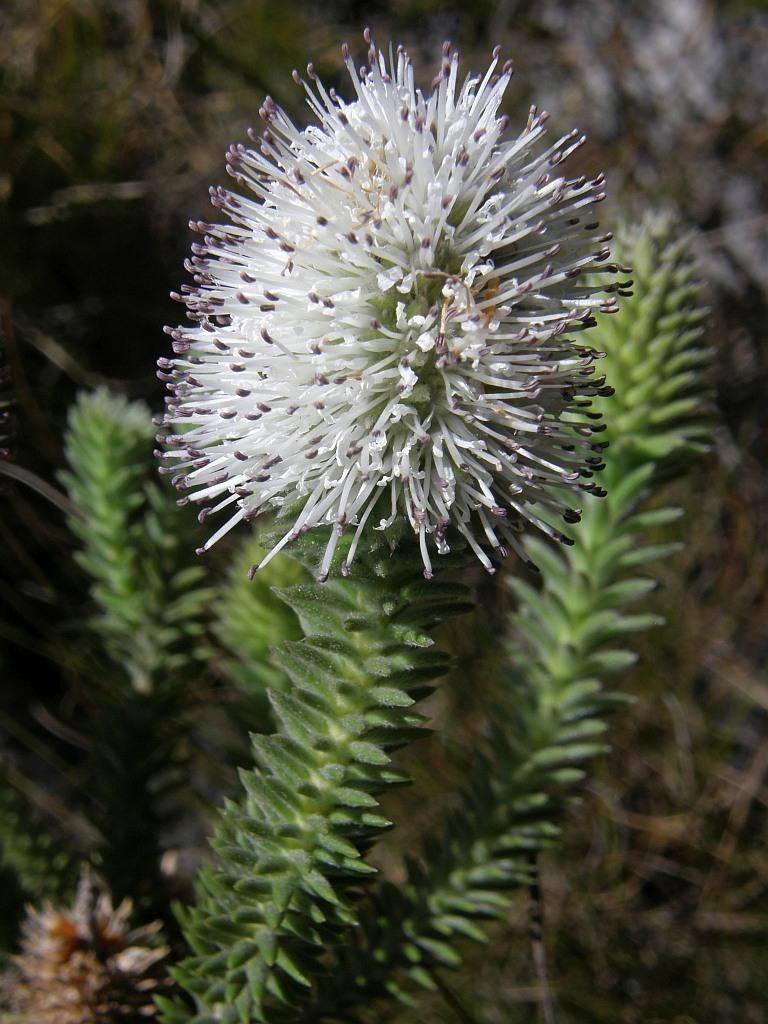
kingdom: Plantae
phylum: Tracheophyta
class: Magnoliopsida
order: Lamiales
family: Stilbaceae
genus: Stilbe
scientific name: Stilbe albiflora
